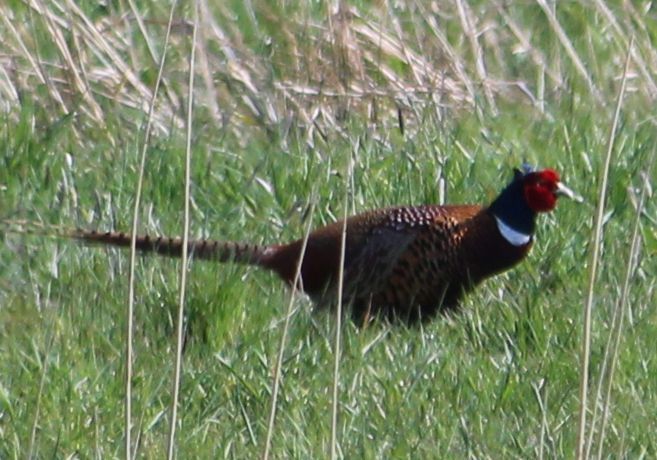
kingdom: Animalia
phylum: Chordata
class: Aves
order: Galliformes
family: Phasianidae
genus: Phasianus
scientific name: Phasianus colchicus
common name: Common pheasant
